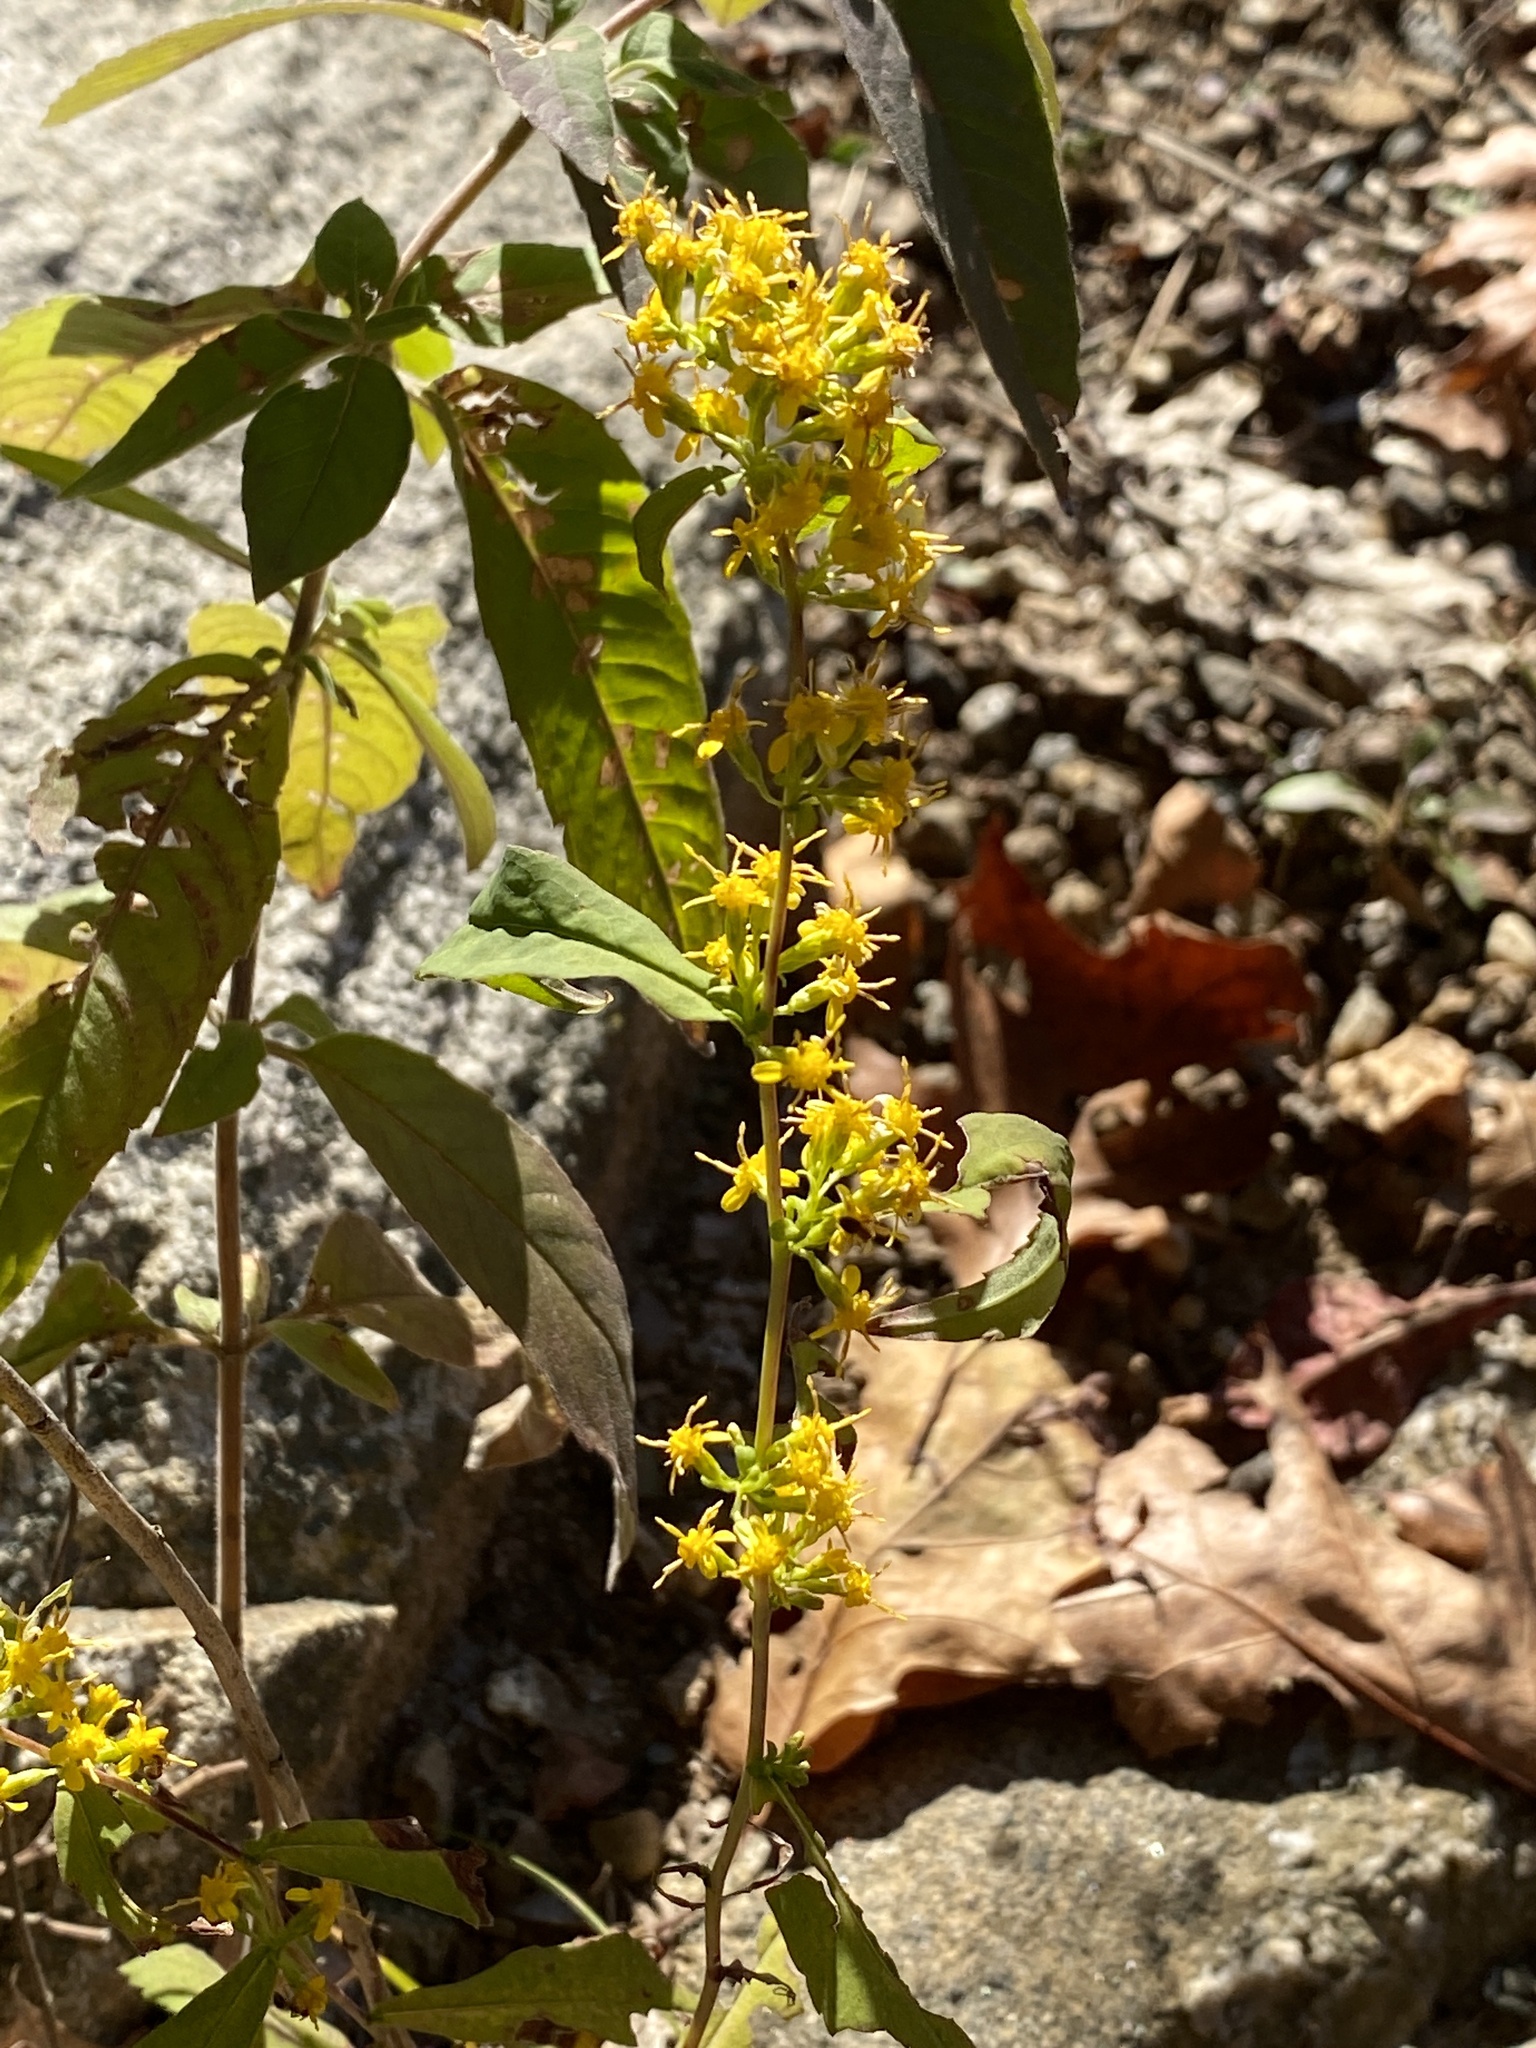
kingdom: Plantae
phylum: Tracheophyta
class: Magnoliopsida
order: Asterales
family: Asteraceae
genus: Solidago
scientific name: Solidago caesia
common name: Woodland goldenrod
